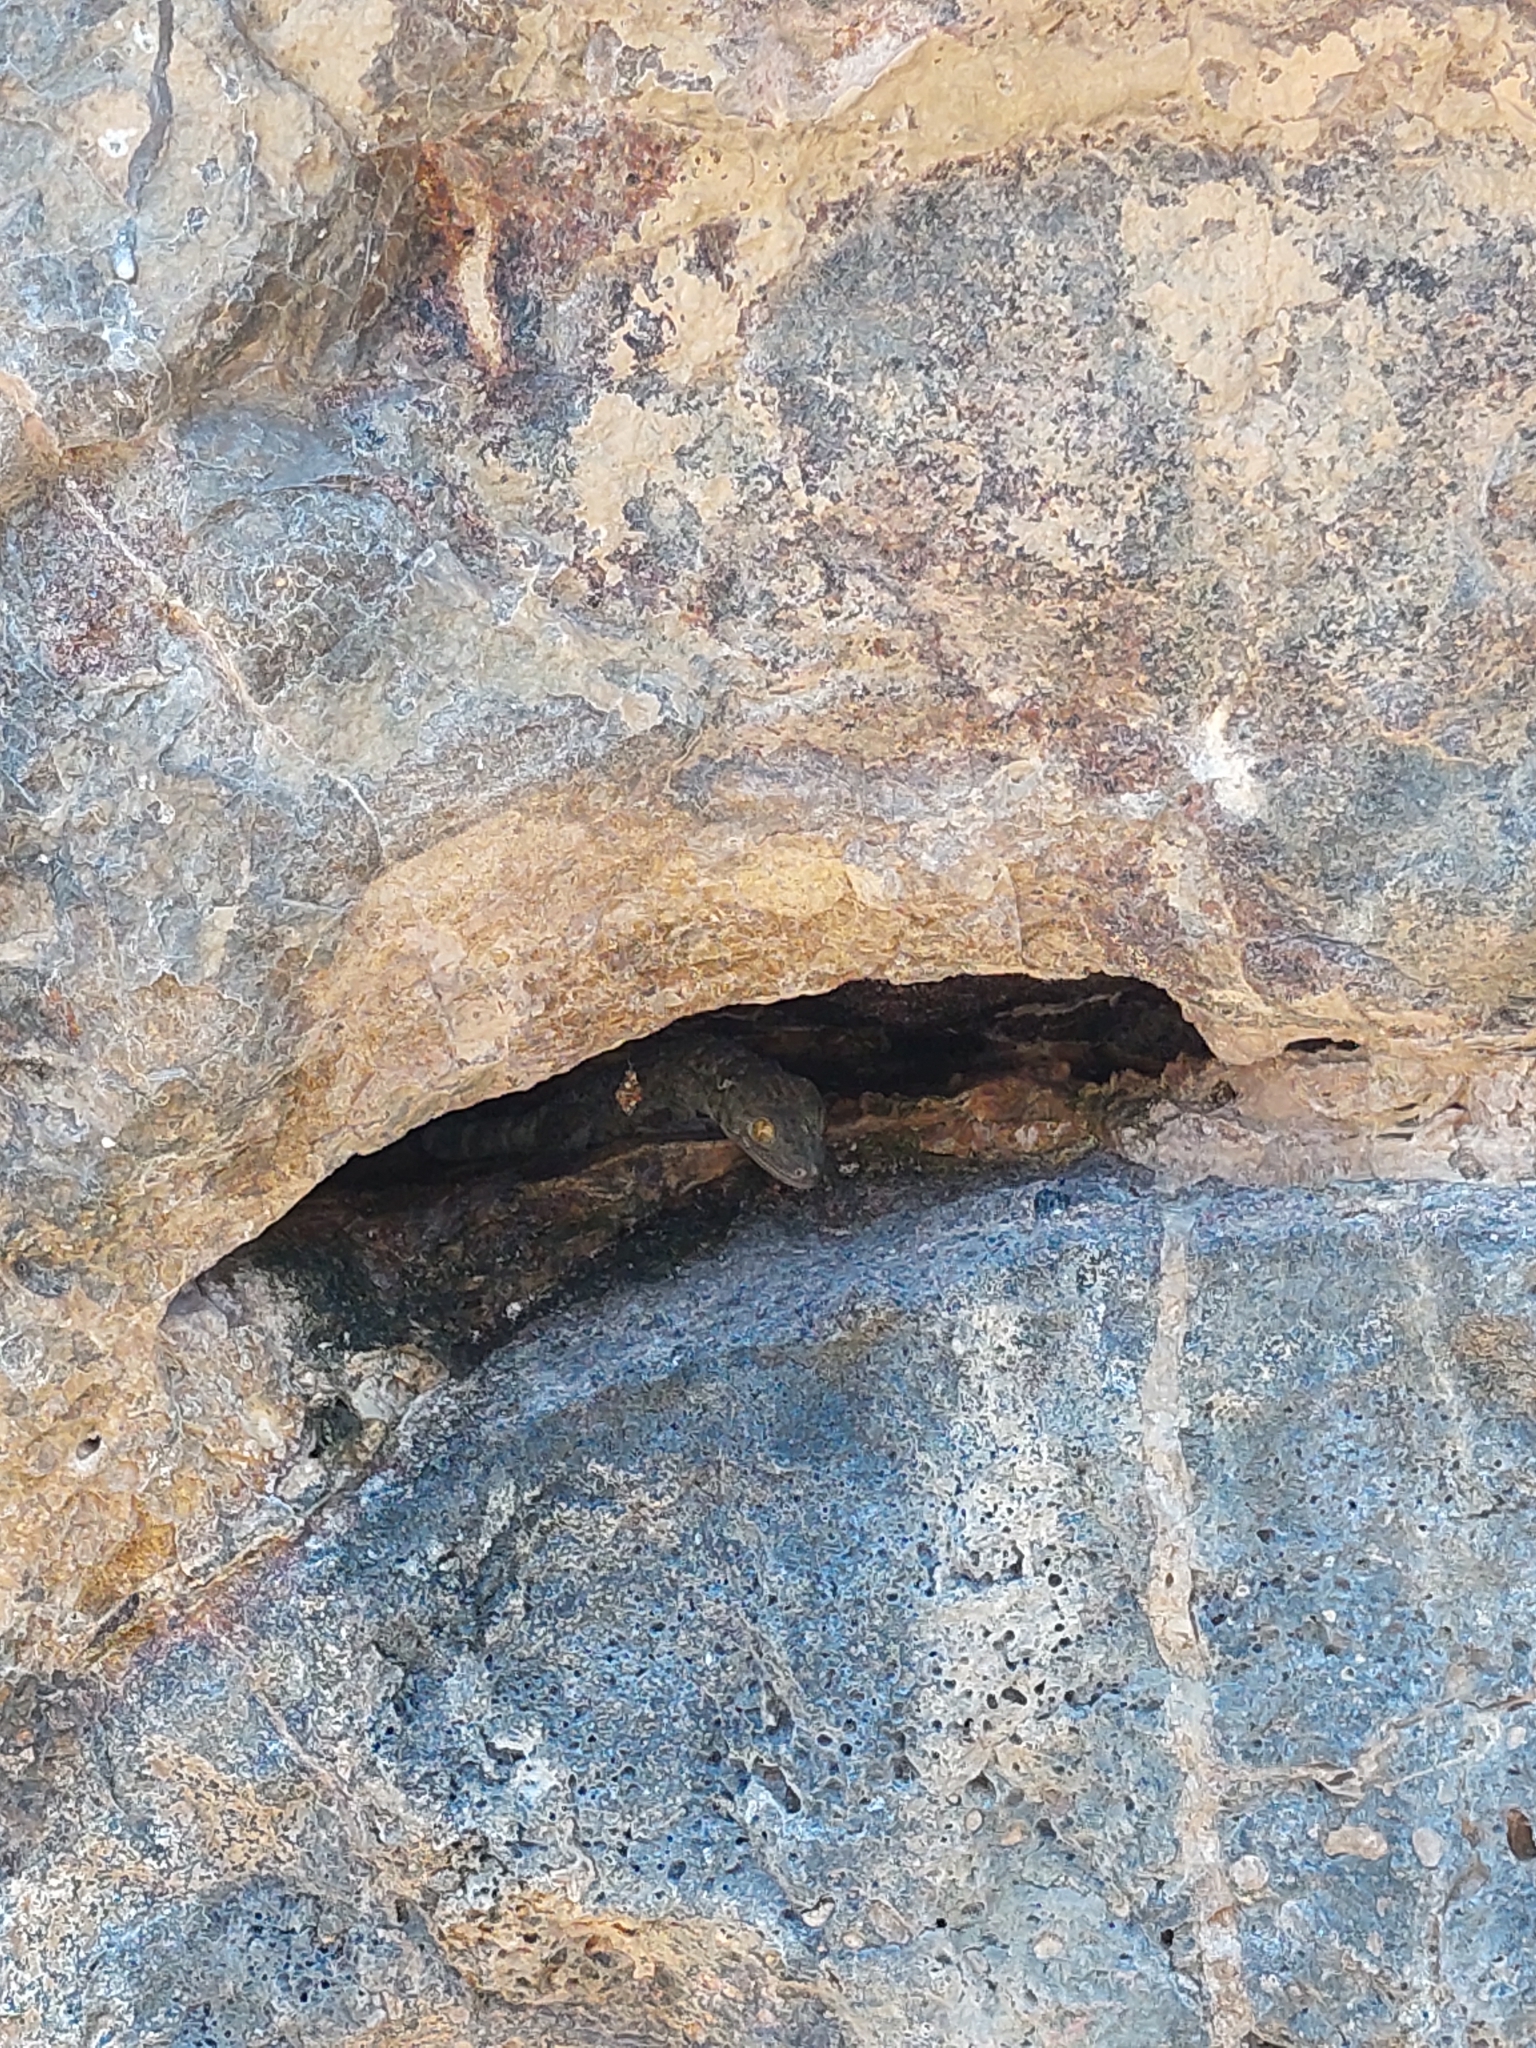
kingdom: Animalia
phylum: Chordata
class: Squamata
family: Gekkonidae
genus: Gekko
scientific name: Gekko gecko
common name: Tokay gecko
